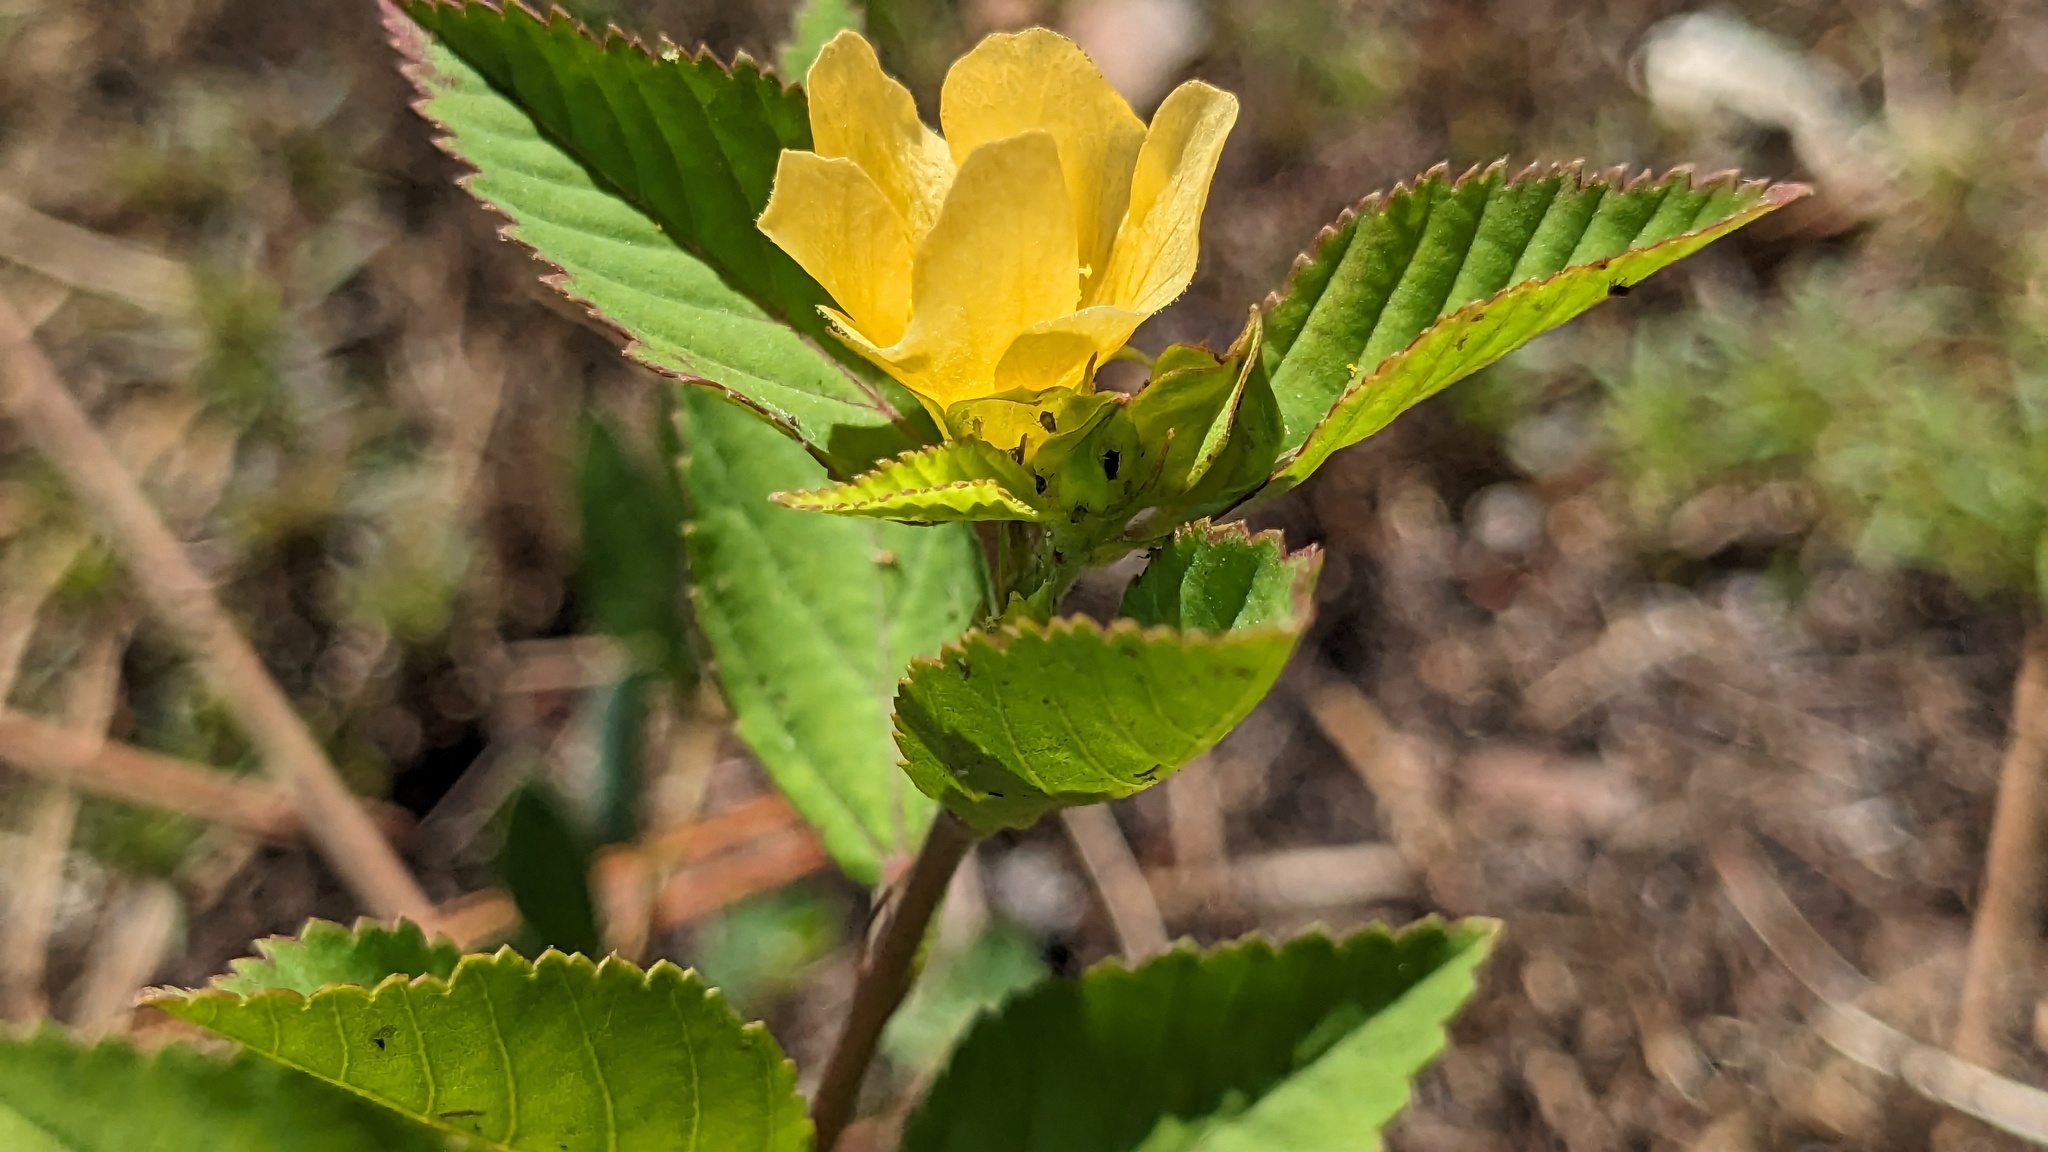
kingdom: Plantae
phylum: Tracheophyta
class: Magnoliopsida
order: Malvales
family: Malvaceae
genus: Sida
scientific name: Sida ulmifolia
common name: Broom weed
